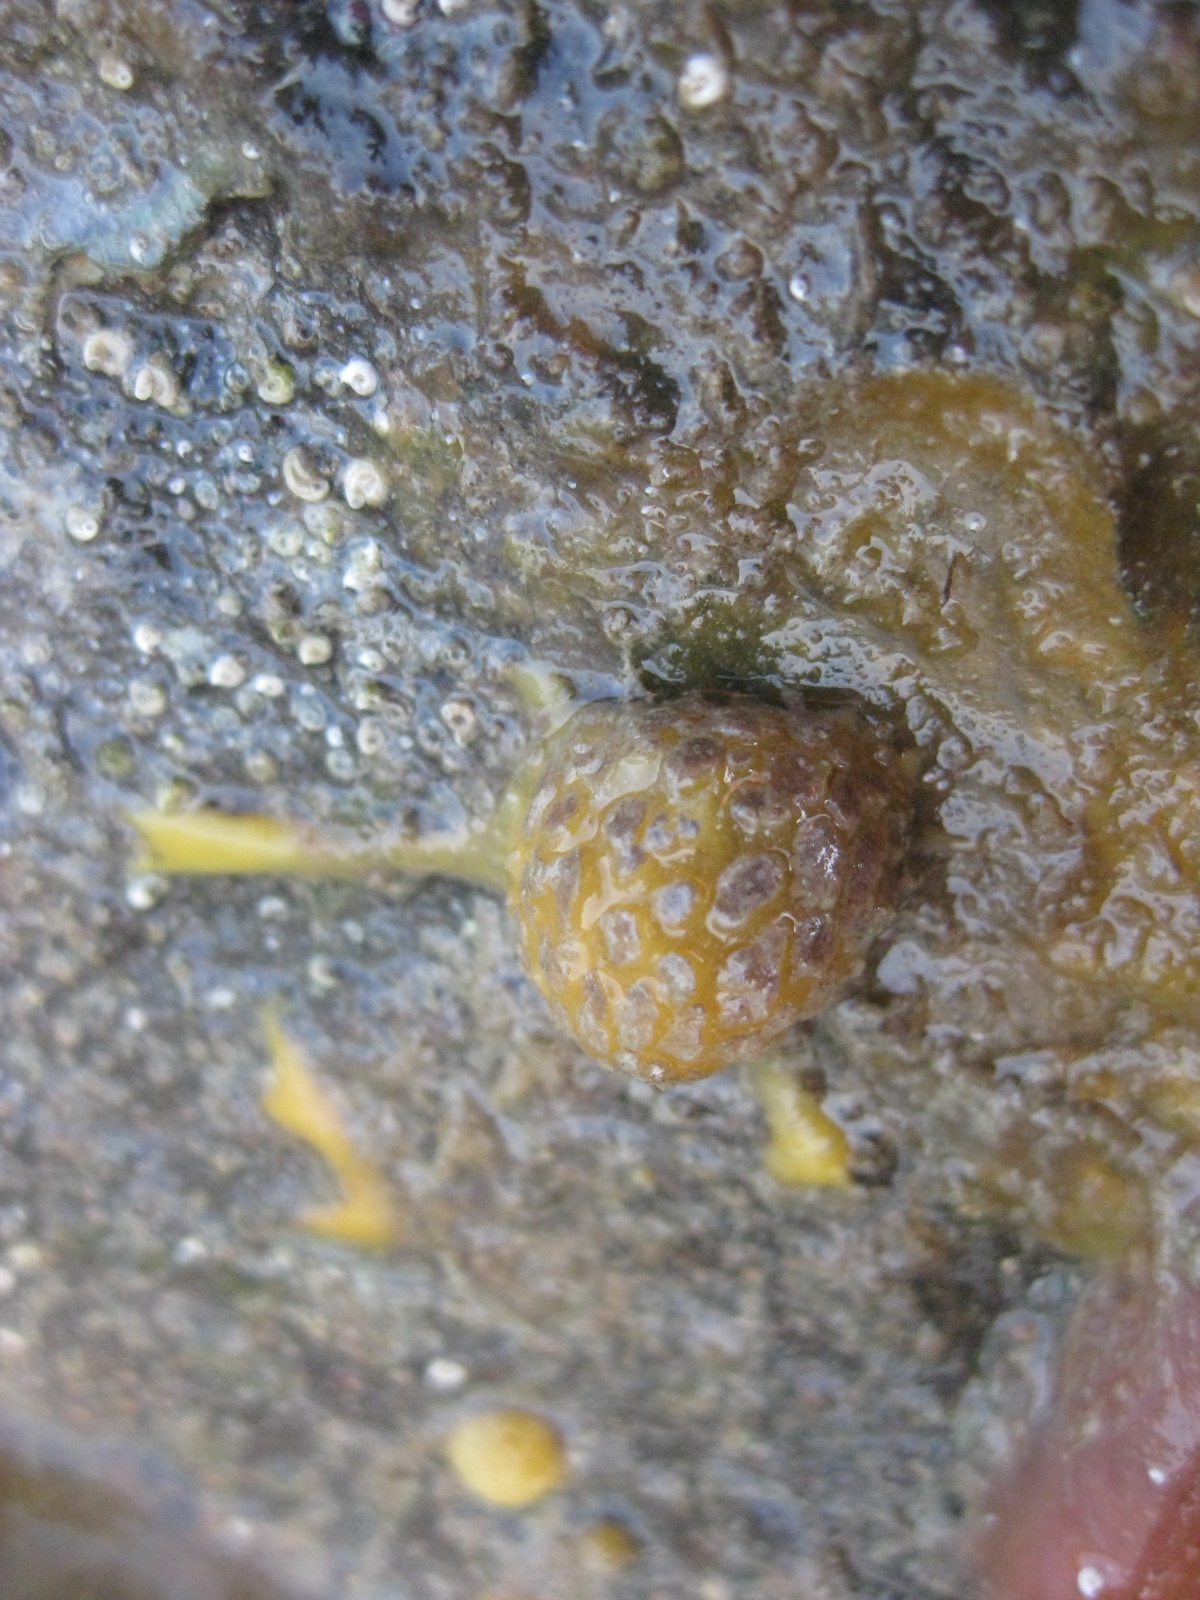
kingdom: Animalia
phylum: Porifera
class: Demospongiae
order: Tethyida
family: Tethyidae
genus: Tethya
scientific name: Tethya stolonifera
